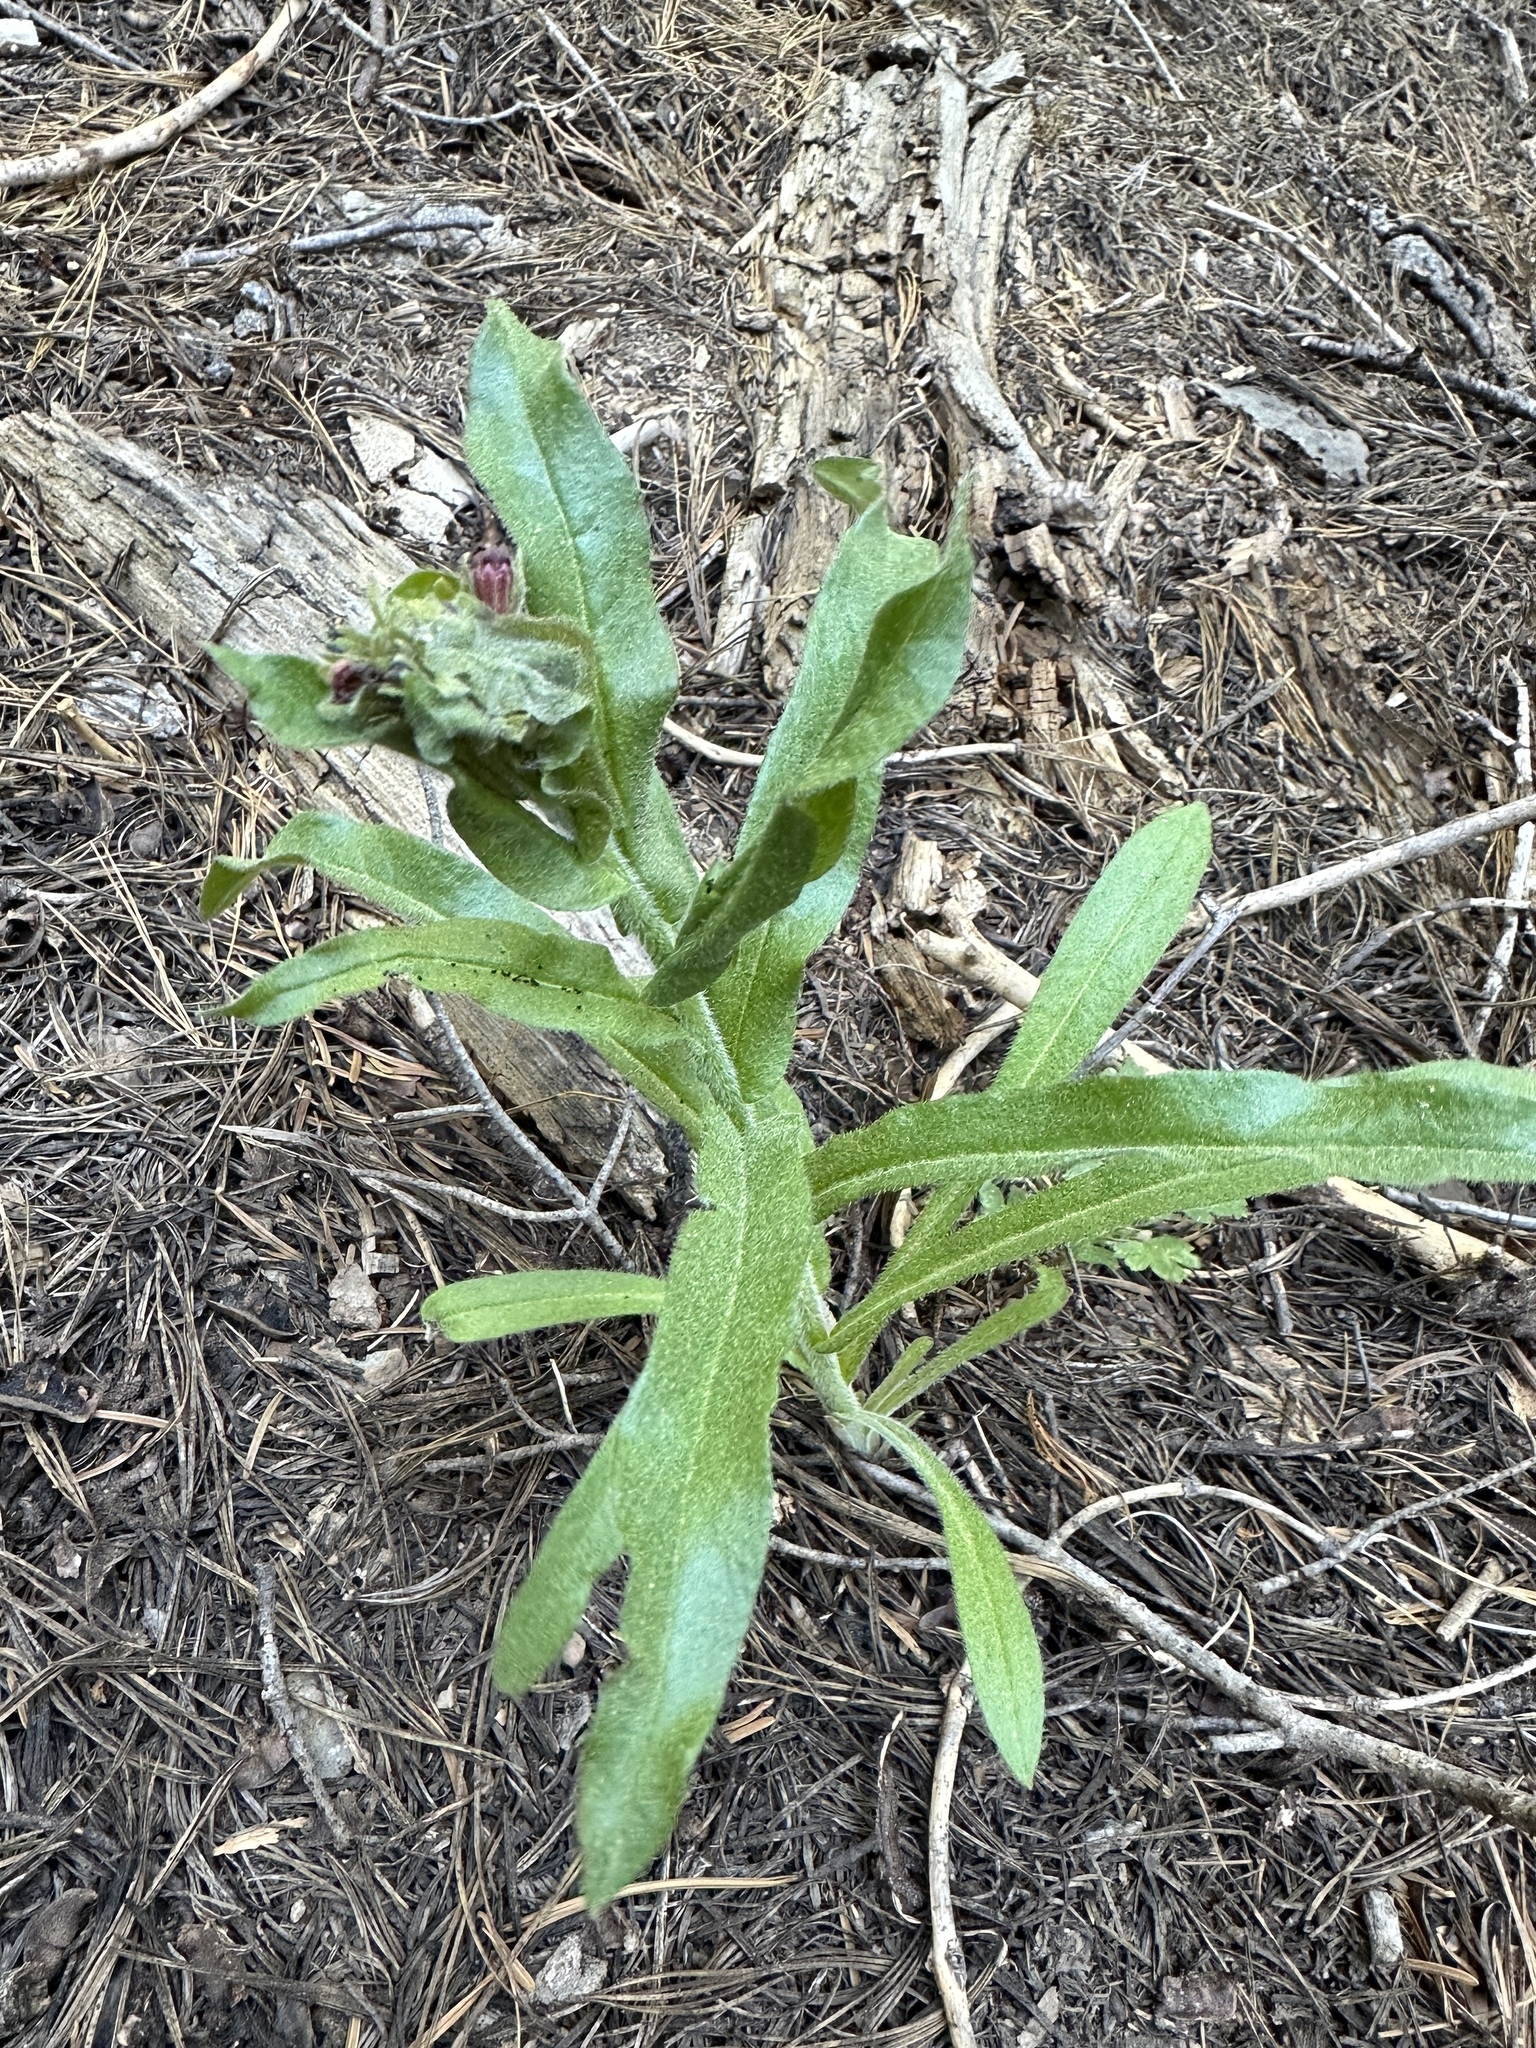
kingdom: Plantae
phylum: Tracheophyta
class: Magnoliopsida
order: Boraginales
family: Boraginaceae
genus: Andersonglossum
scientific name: Andersonglossum occidentale
